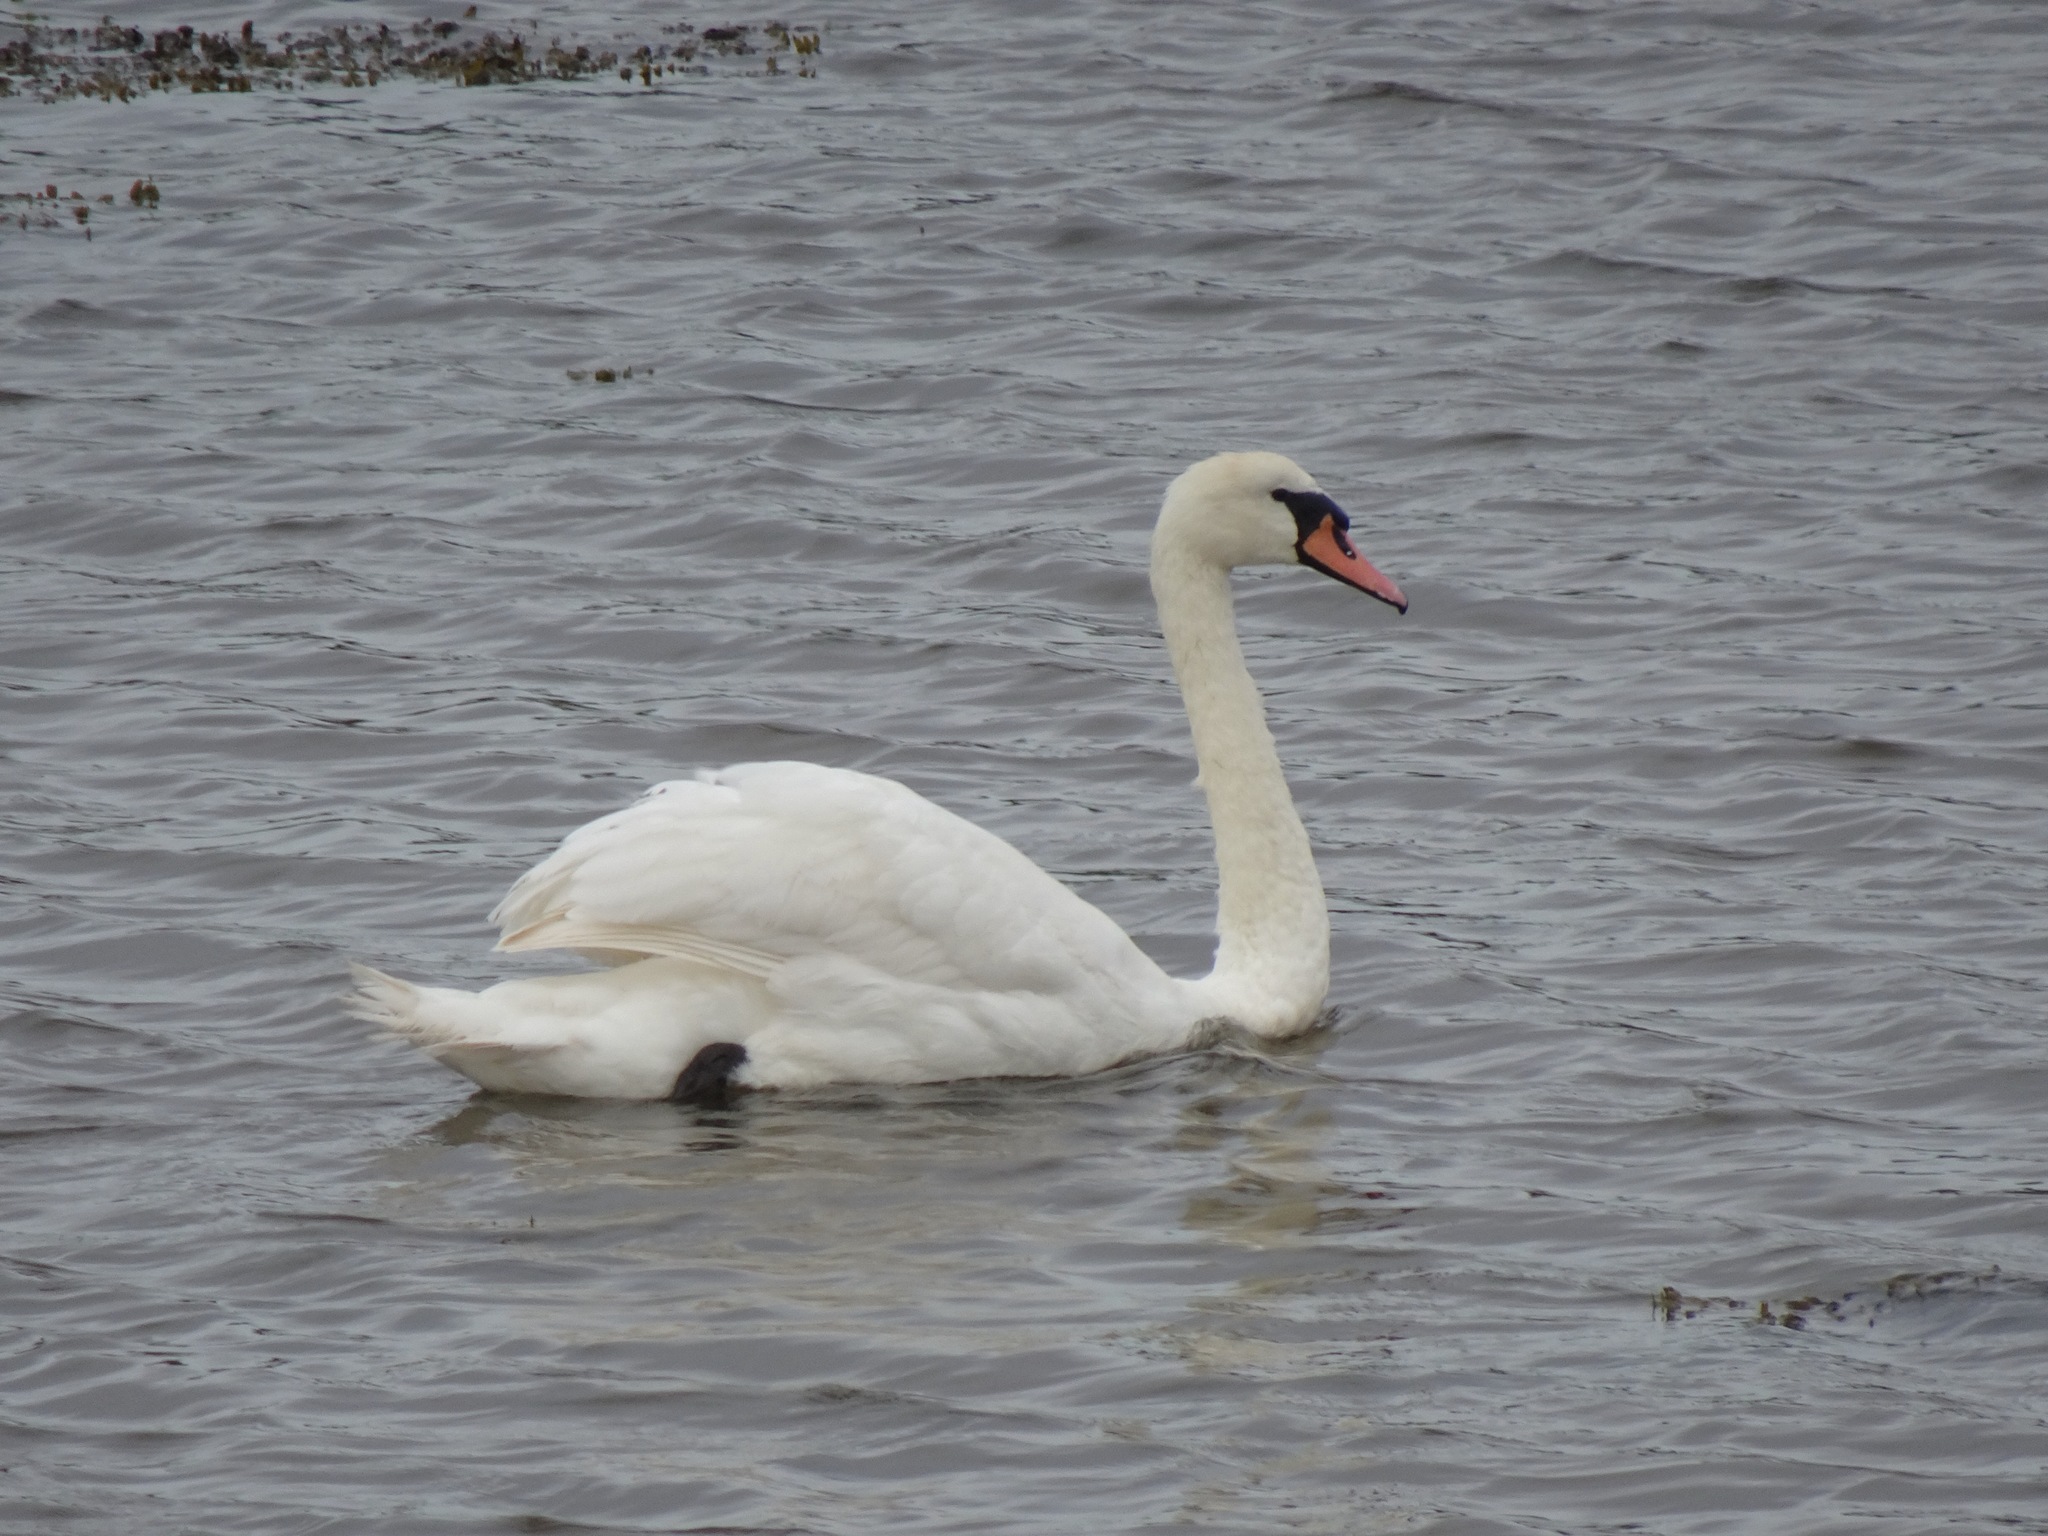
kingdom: Animalia
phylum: Chordata
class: Aves
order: Anseriformes
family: Anatidae
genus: Cygnus
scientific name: Cygnus olor
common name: Mute swan
